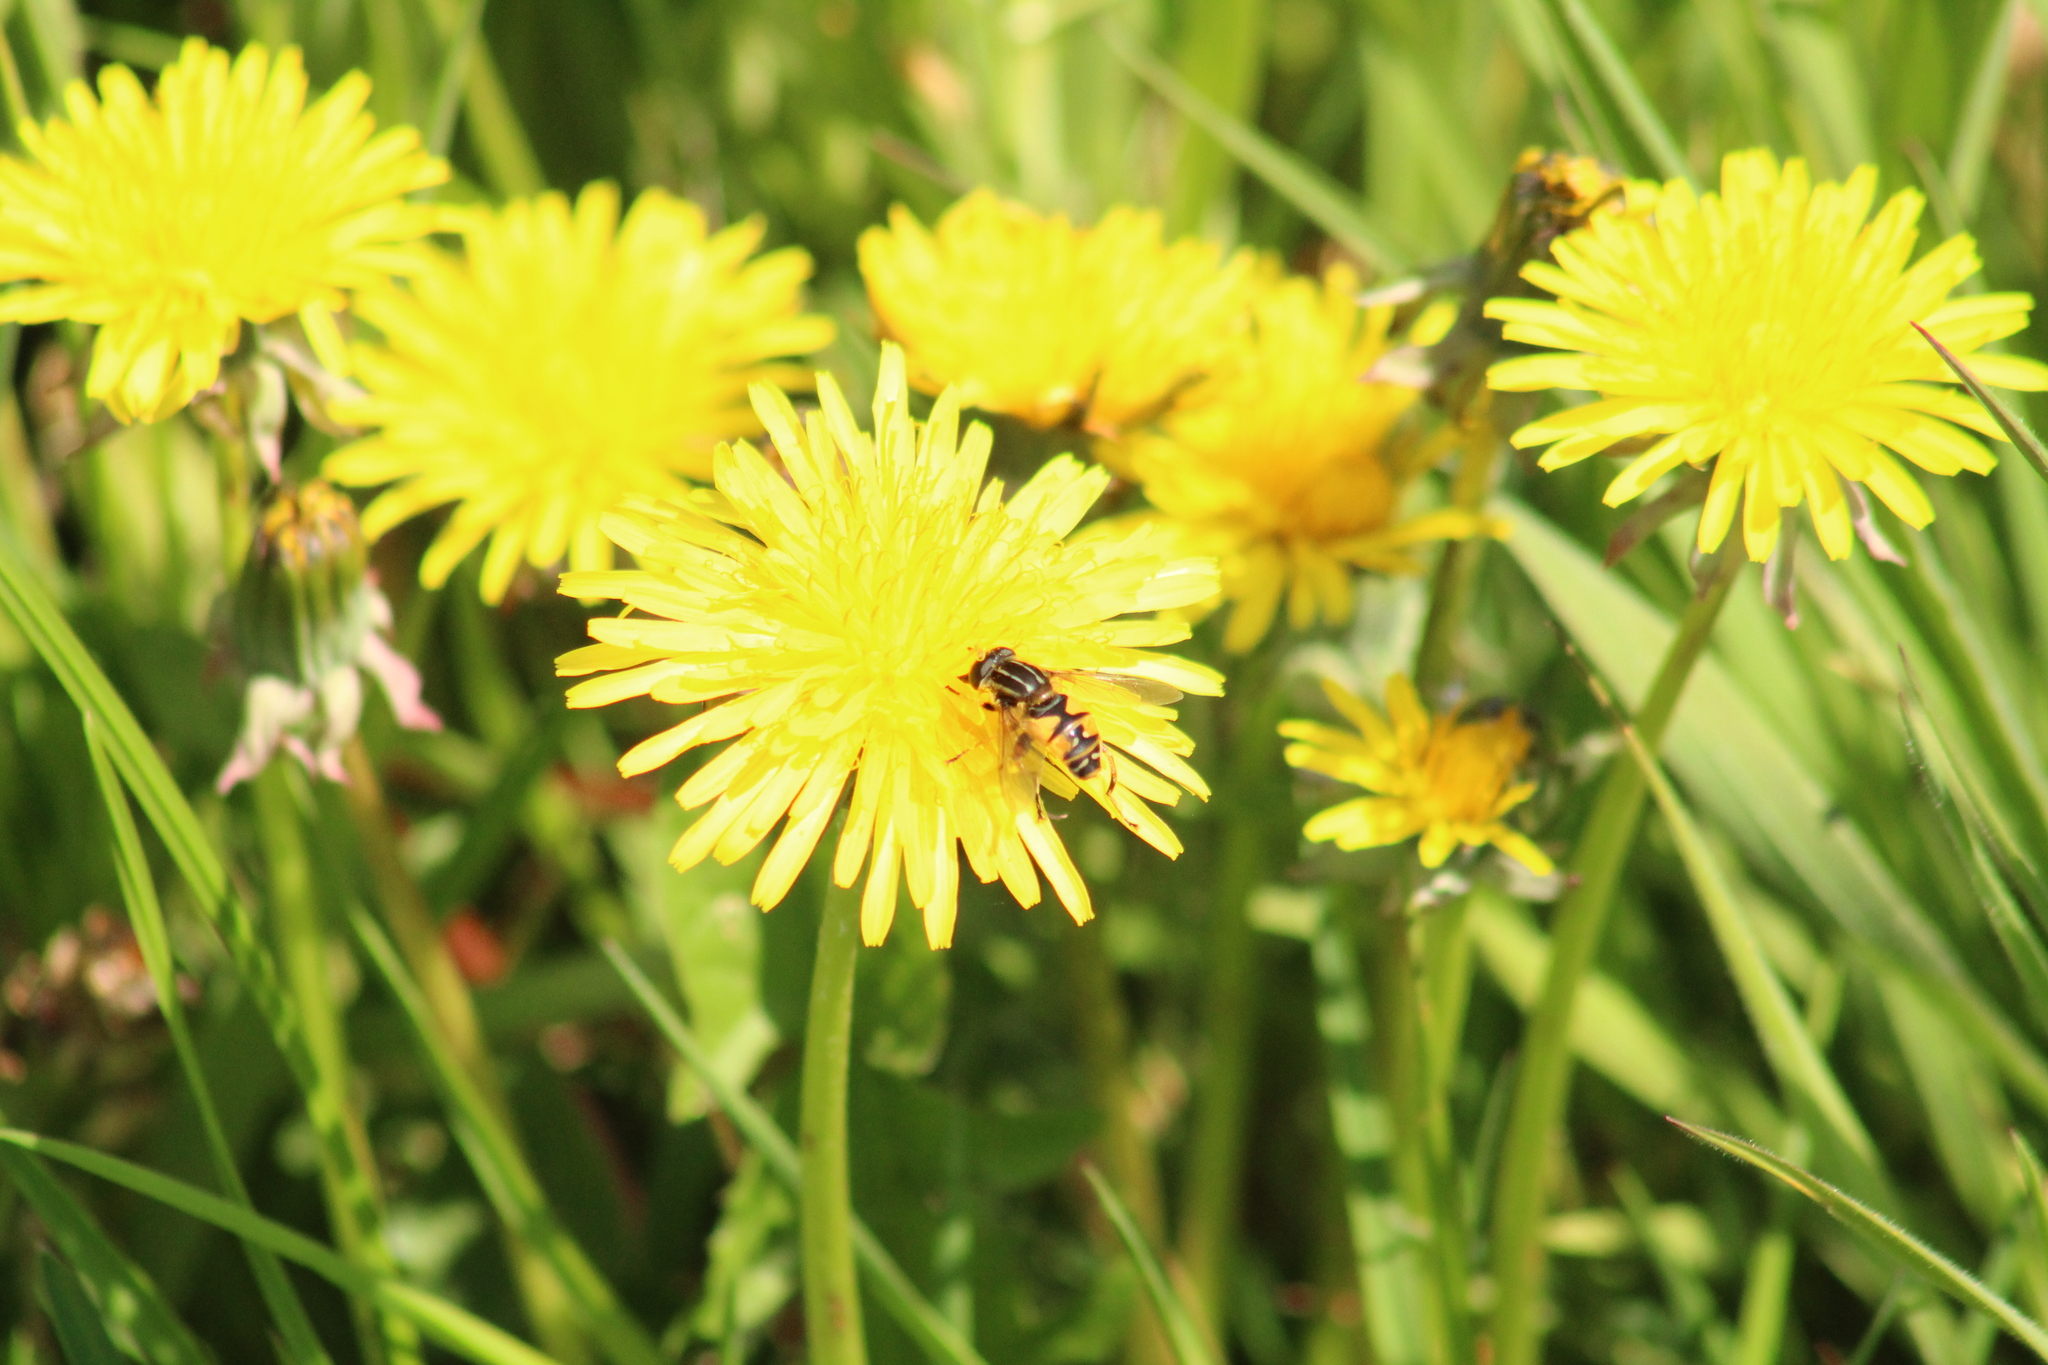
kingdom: Animalia
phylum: Arthropoda
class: Insecta
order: Diptera
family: Syrphidae
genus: Helophilus
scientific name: Helophilus pendulus
